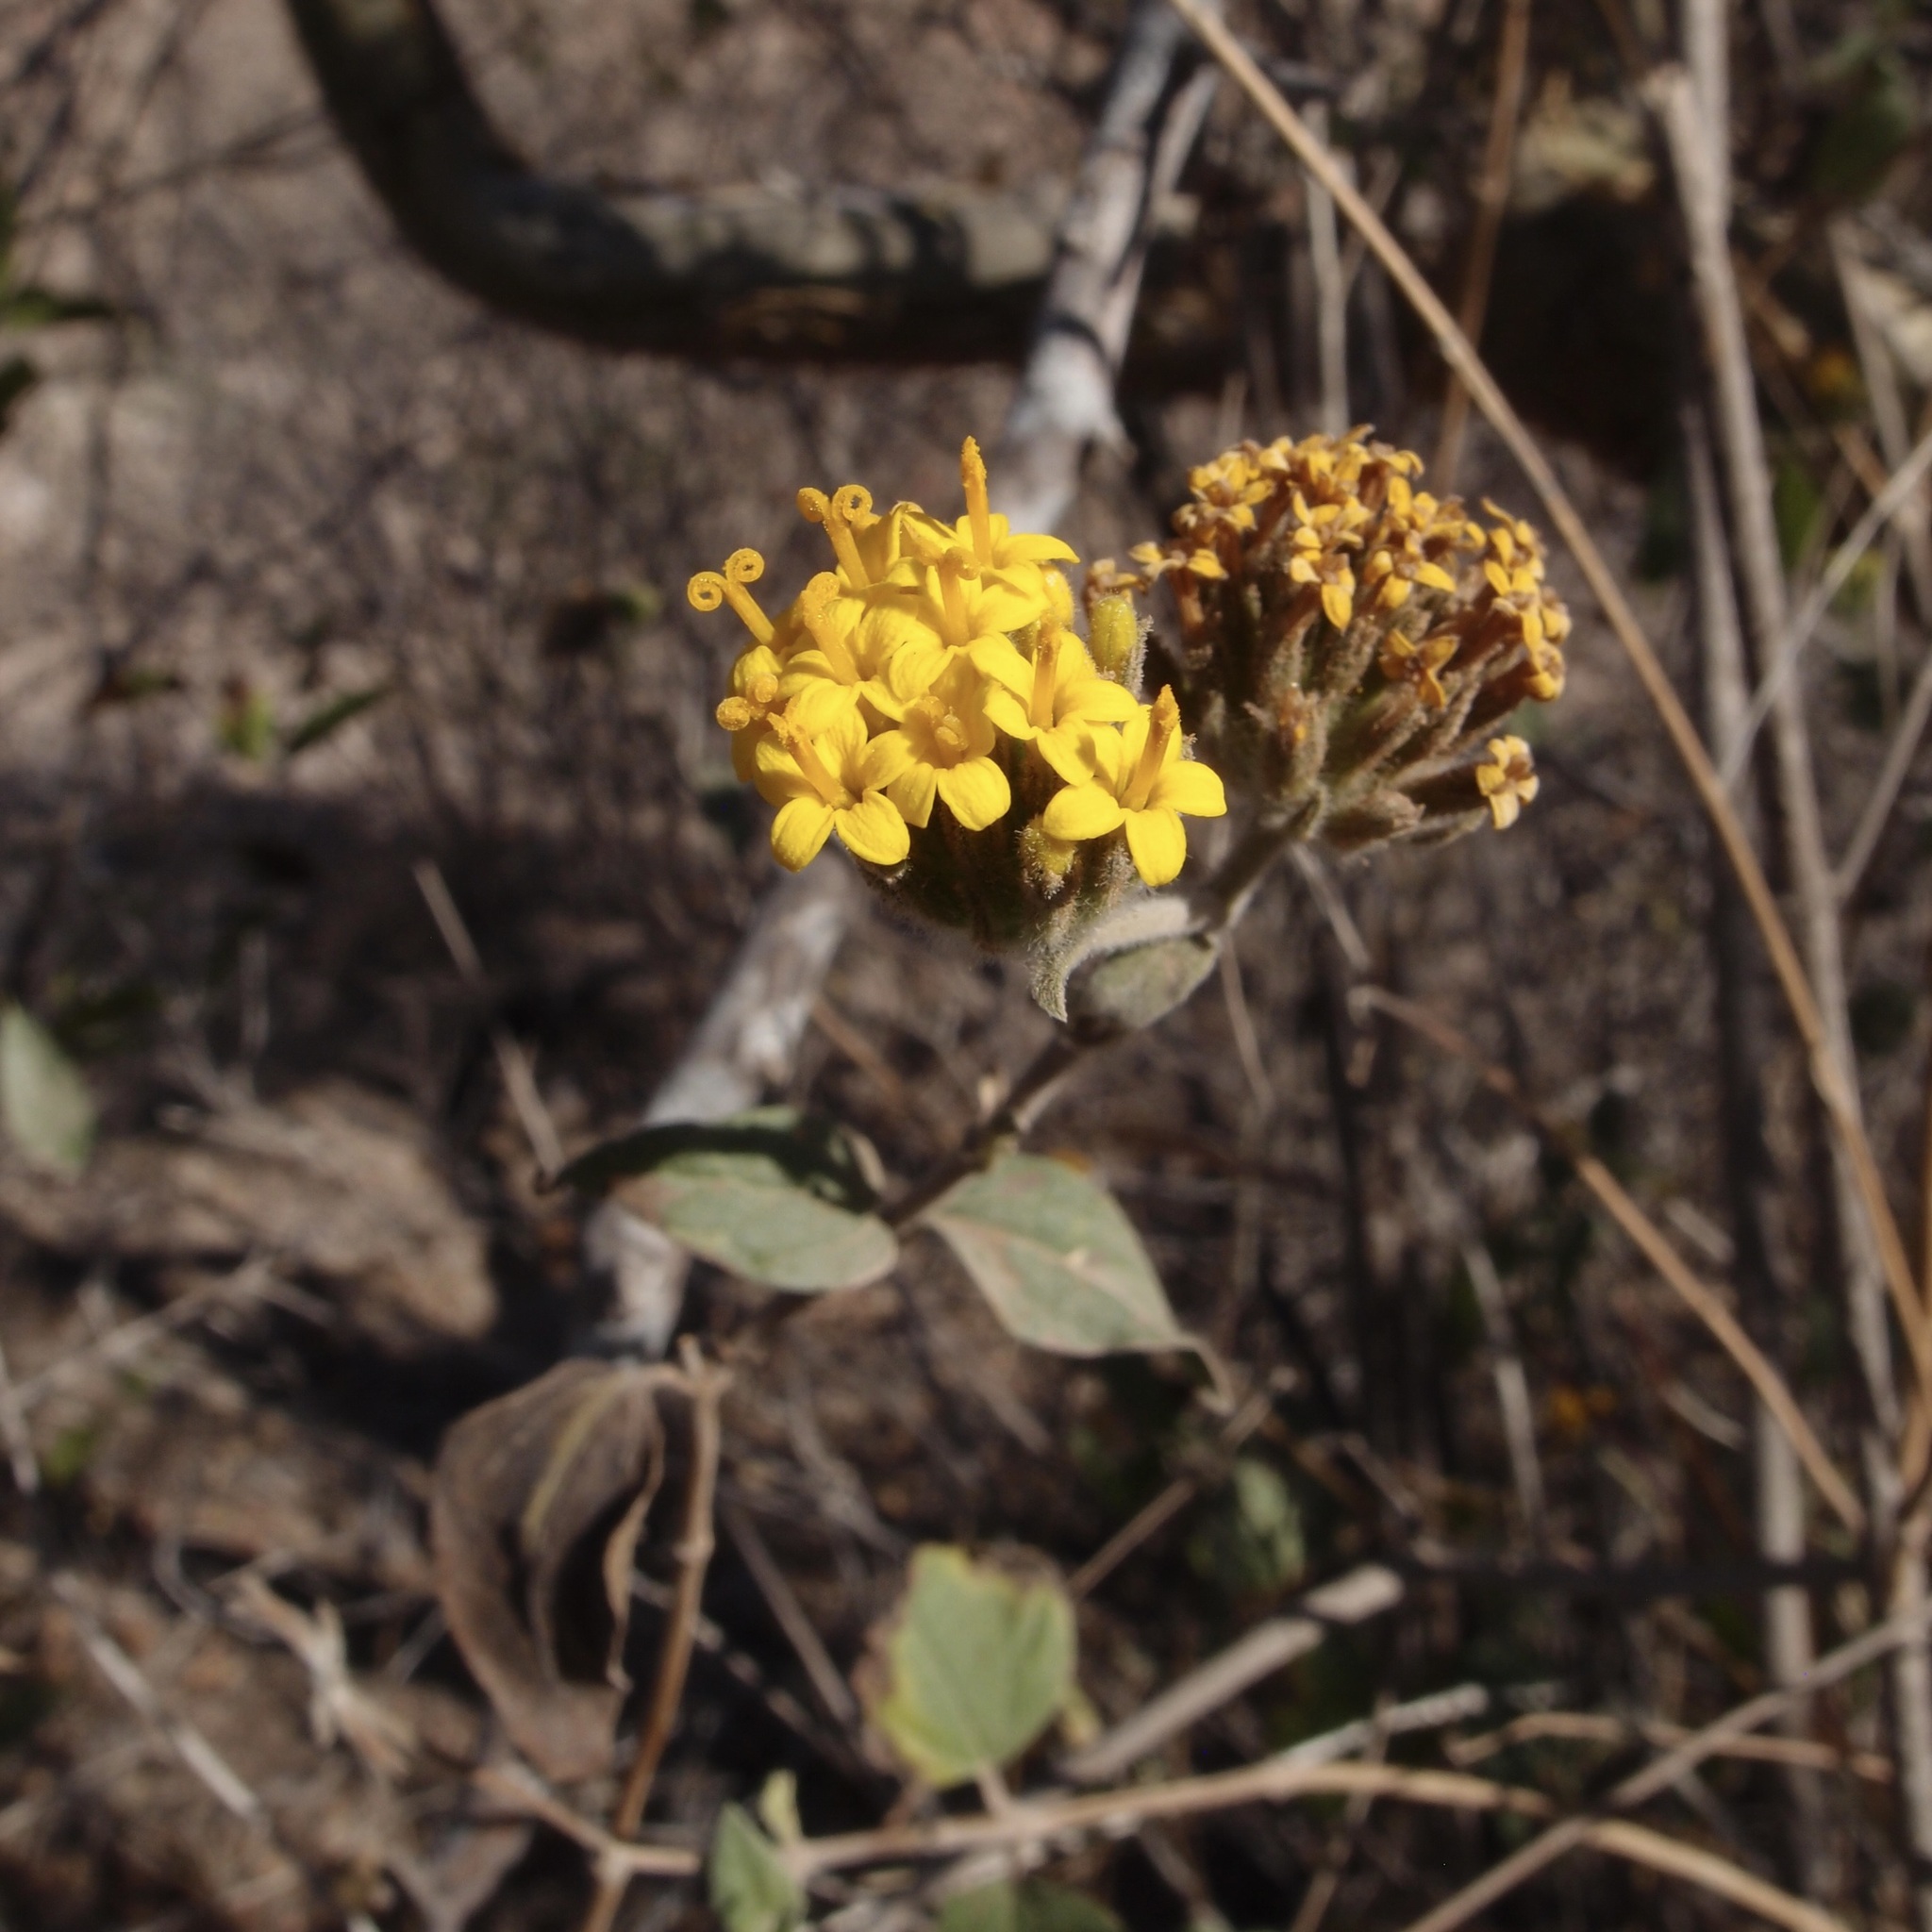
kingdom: Plantae
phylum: Tracheophyta
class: Magnoliopsida
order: Asterales
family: Asteraceae
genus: Lagascea
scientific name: Lagascea decipiens
